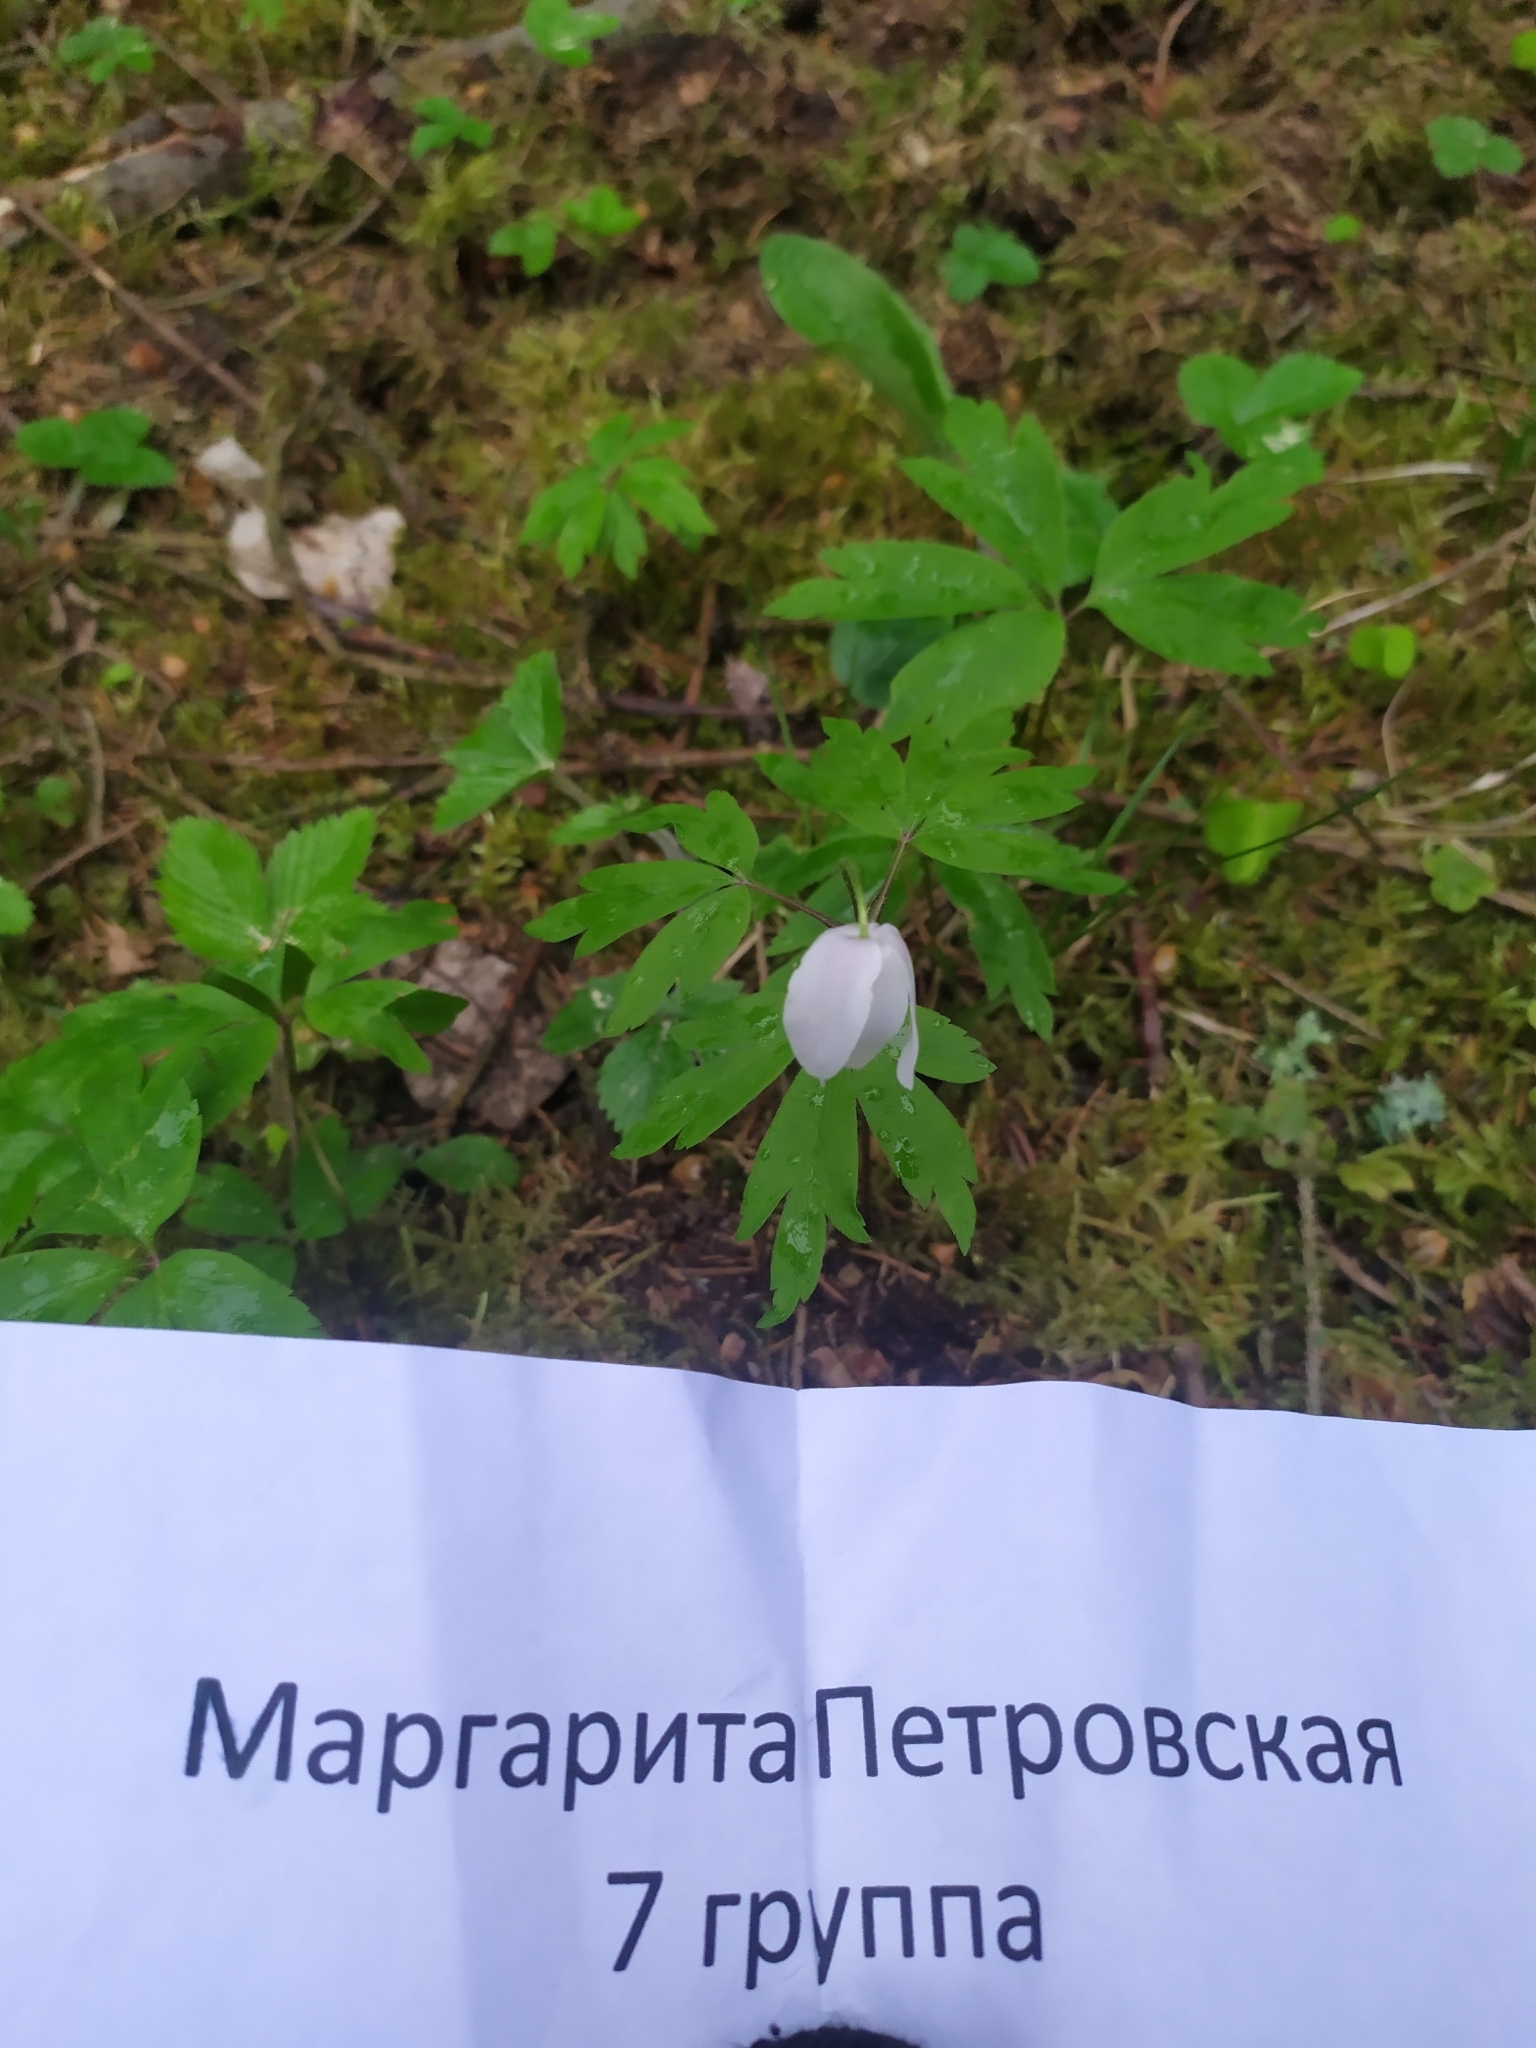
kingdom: Plantae
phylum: Tracheophyta
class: Magnoliopsida
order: Ranunculales
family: Ranunculaceae
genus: Anemone
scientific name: Anemone nemorosa
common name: Wood anemone
